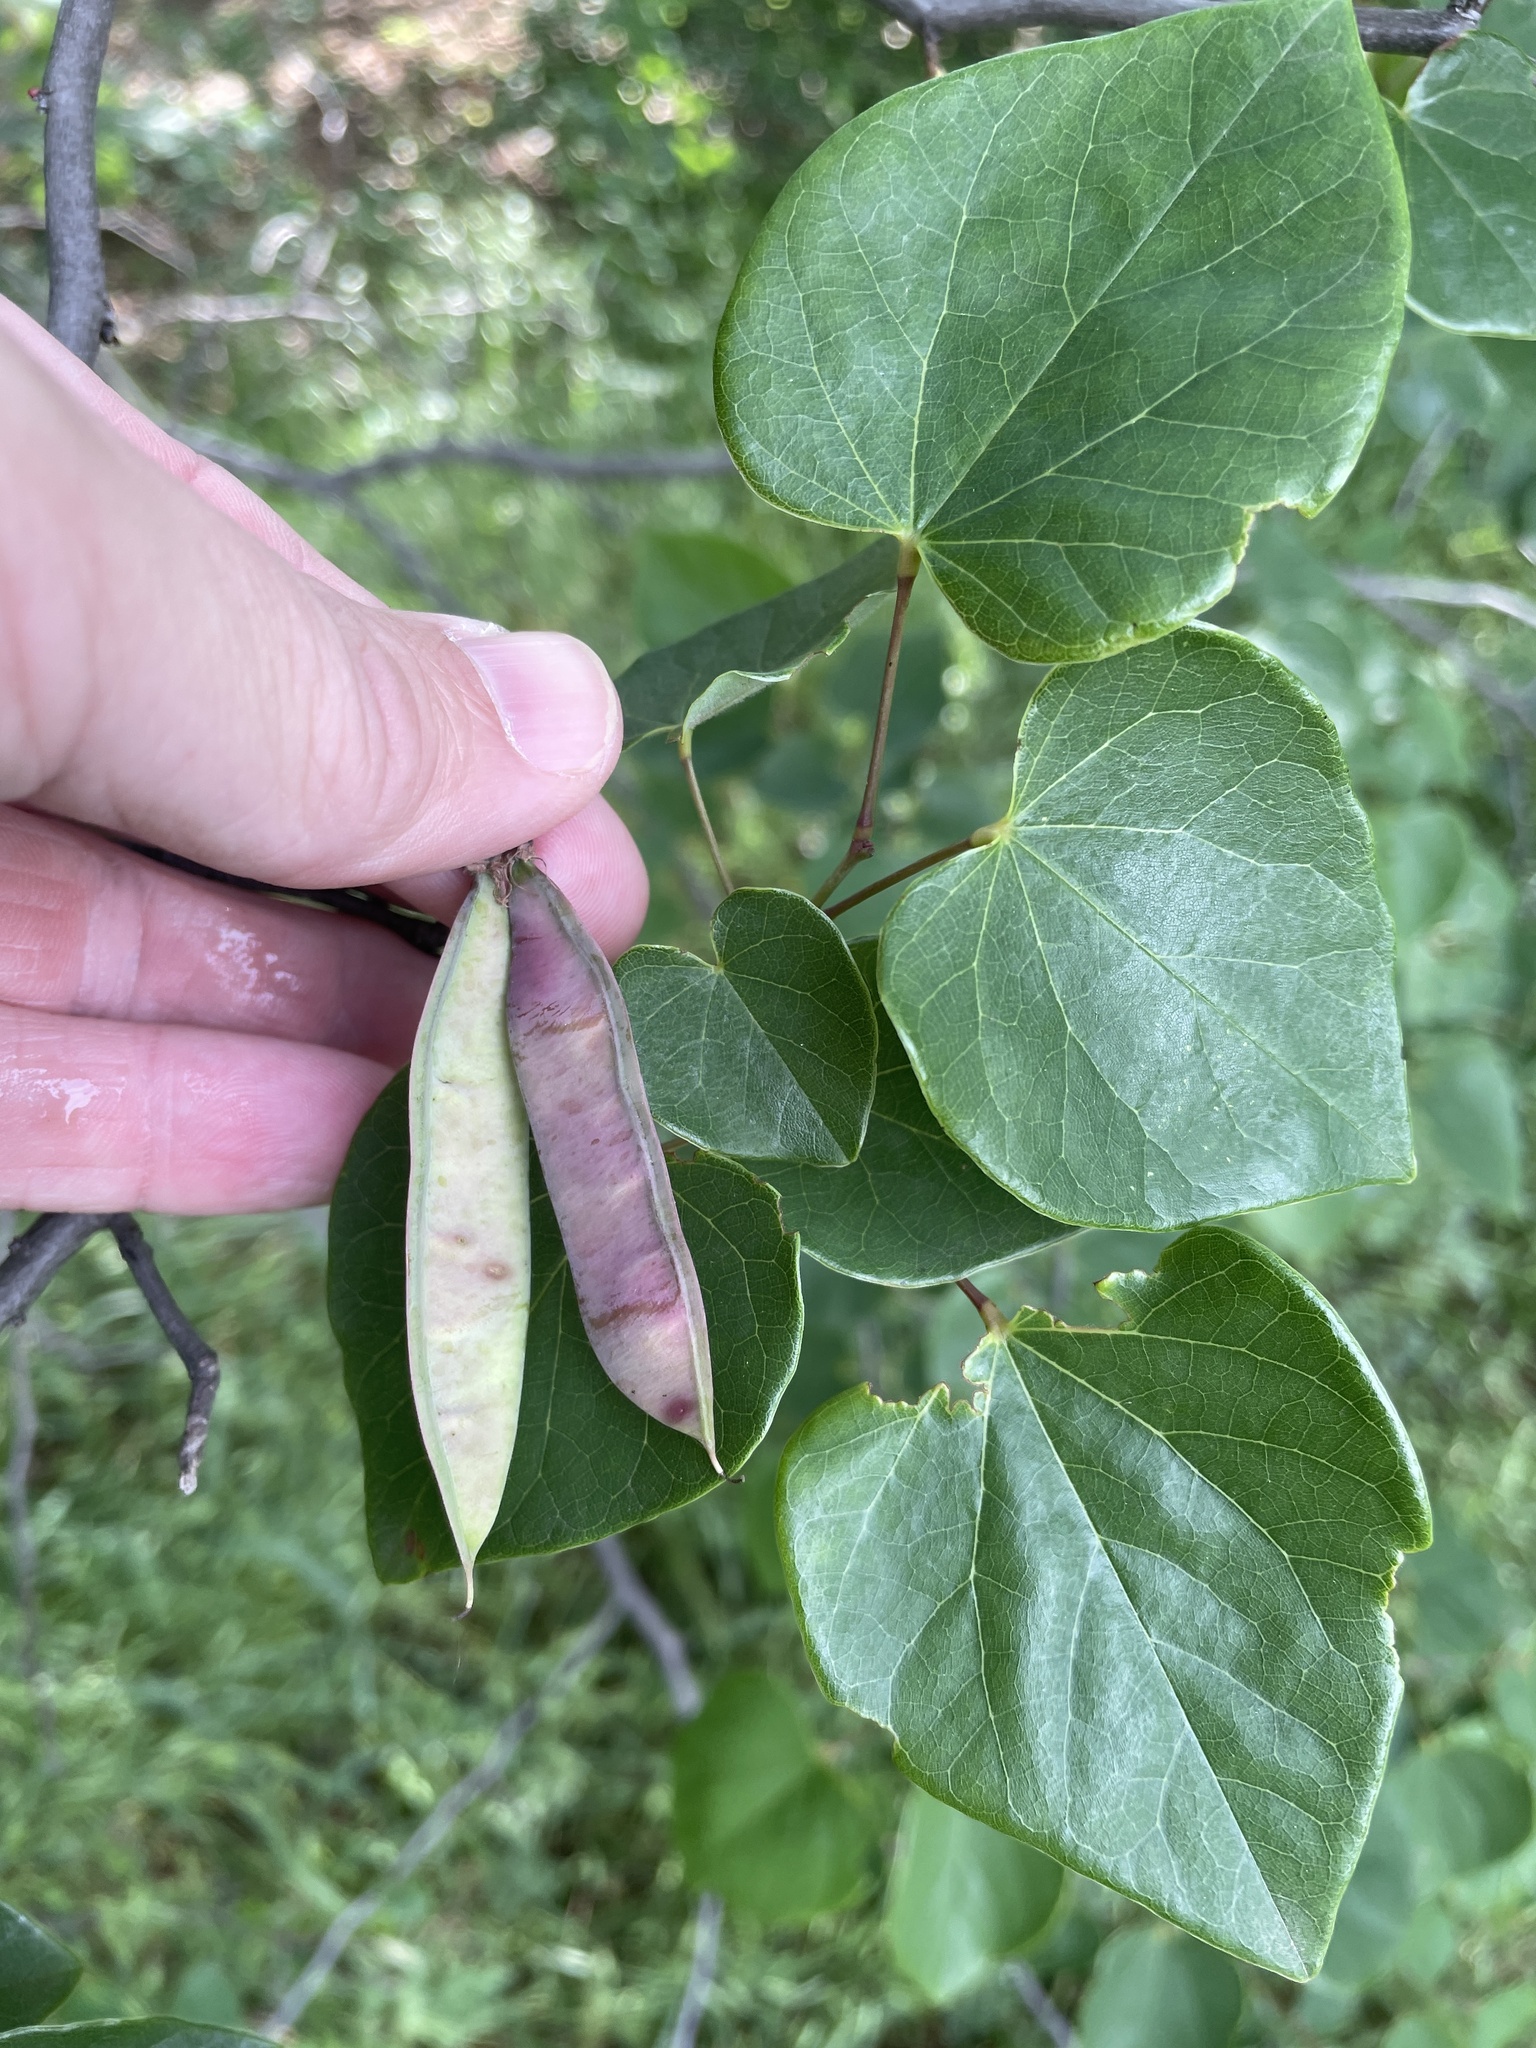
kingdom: Plantae
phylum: Tracheophyta
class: Magnoliopsida
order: Fabales
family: Fabaceae
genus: Cercis
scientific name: Cercis canadensis
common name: Eastern redbud
